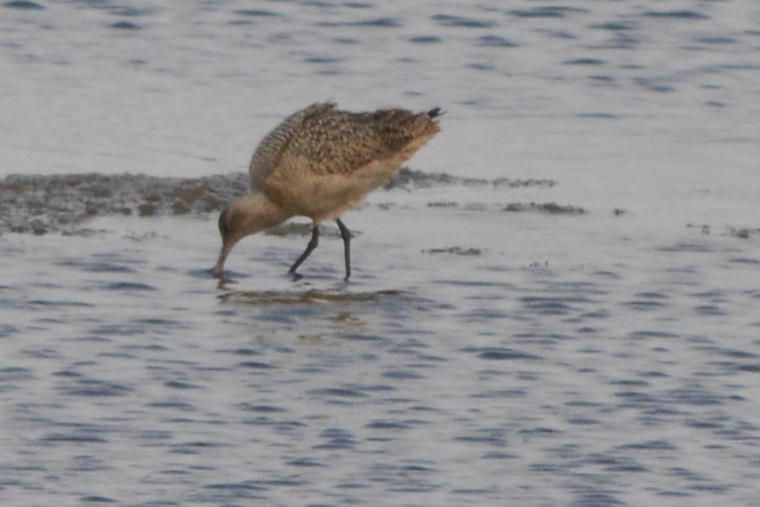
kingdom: Animalia
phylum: Chordata
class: Aves
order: Charadriiformes
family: Scolopacidae
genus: Limosa
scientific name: Limosa fedoa
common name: Marbled godwit
